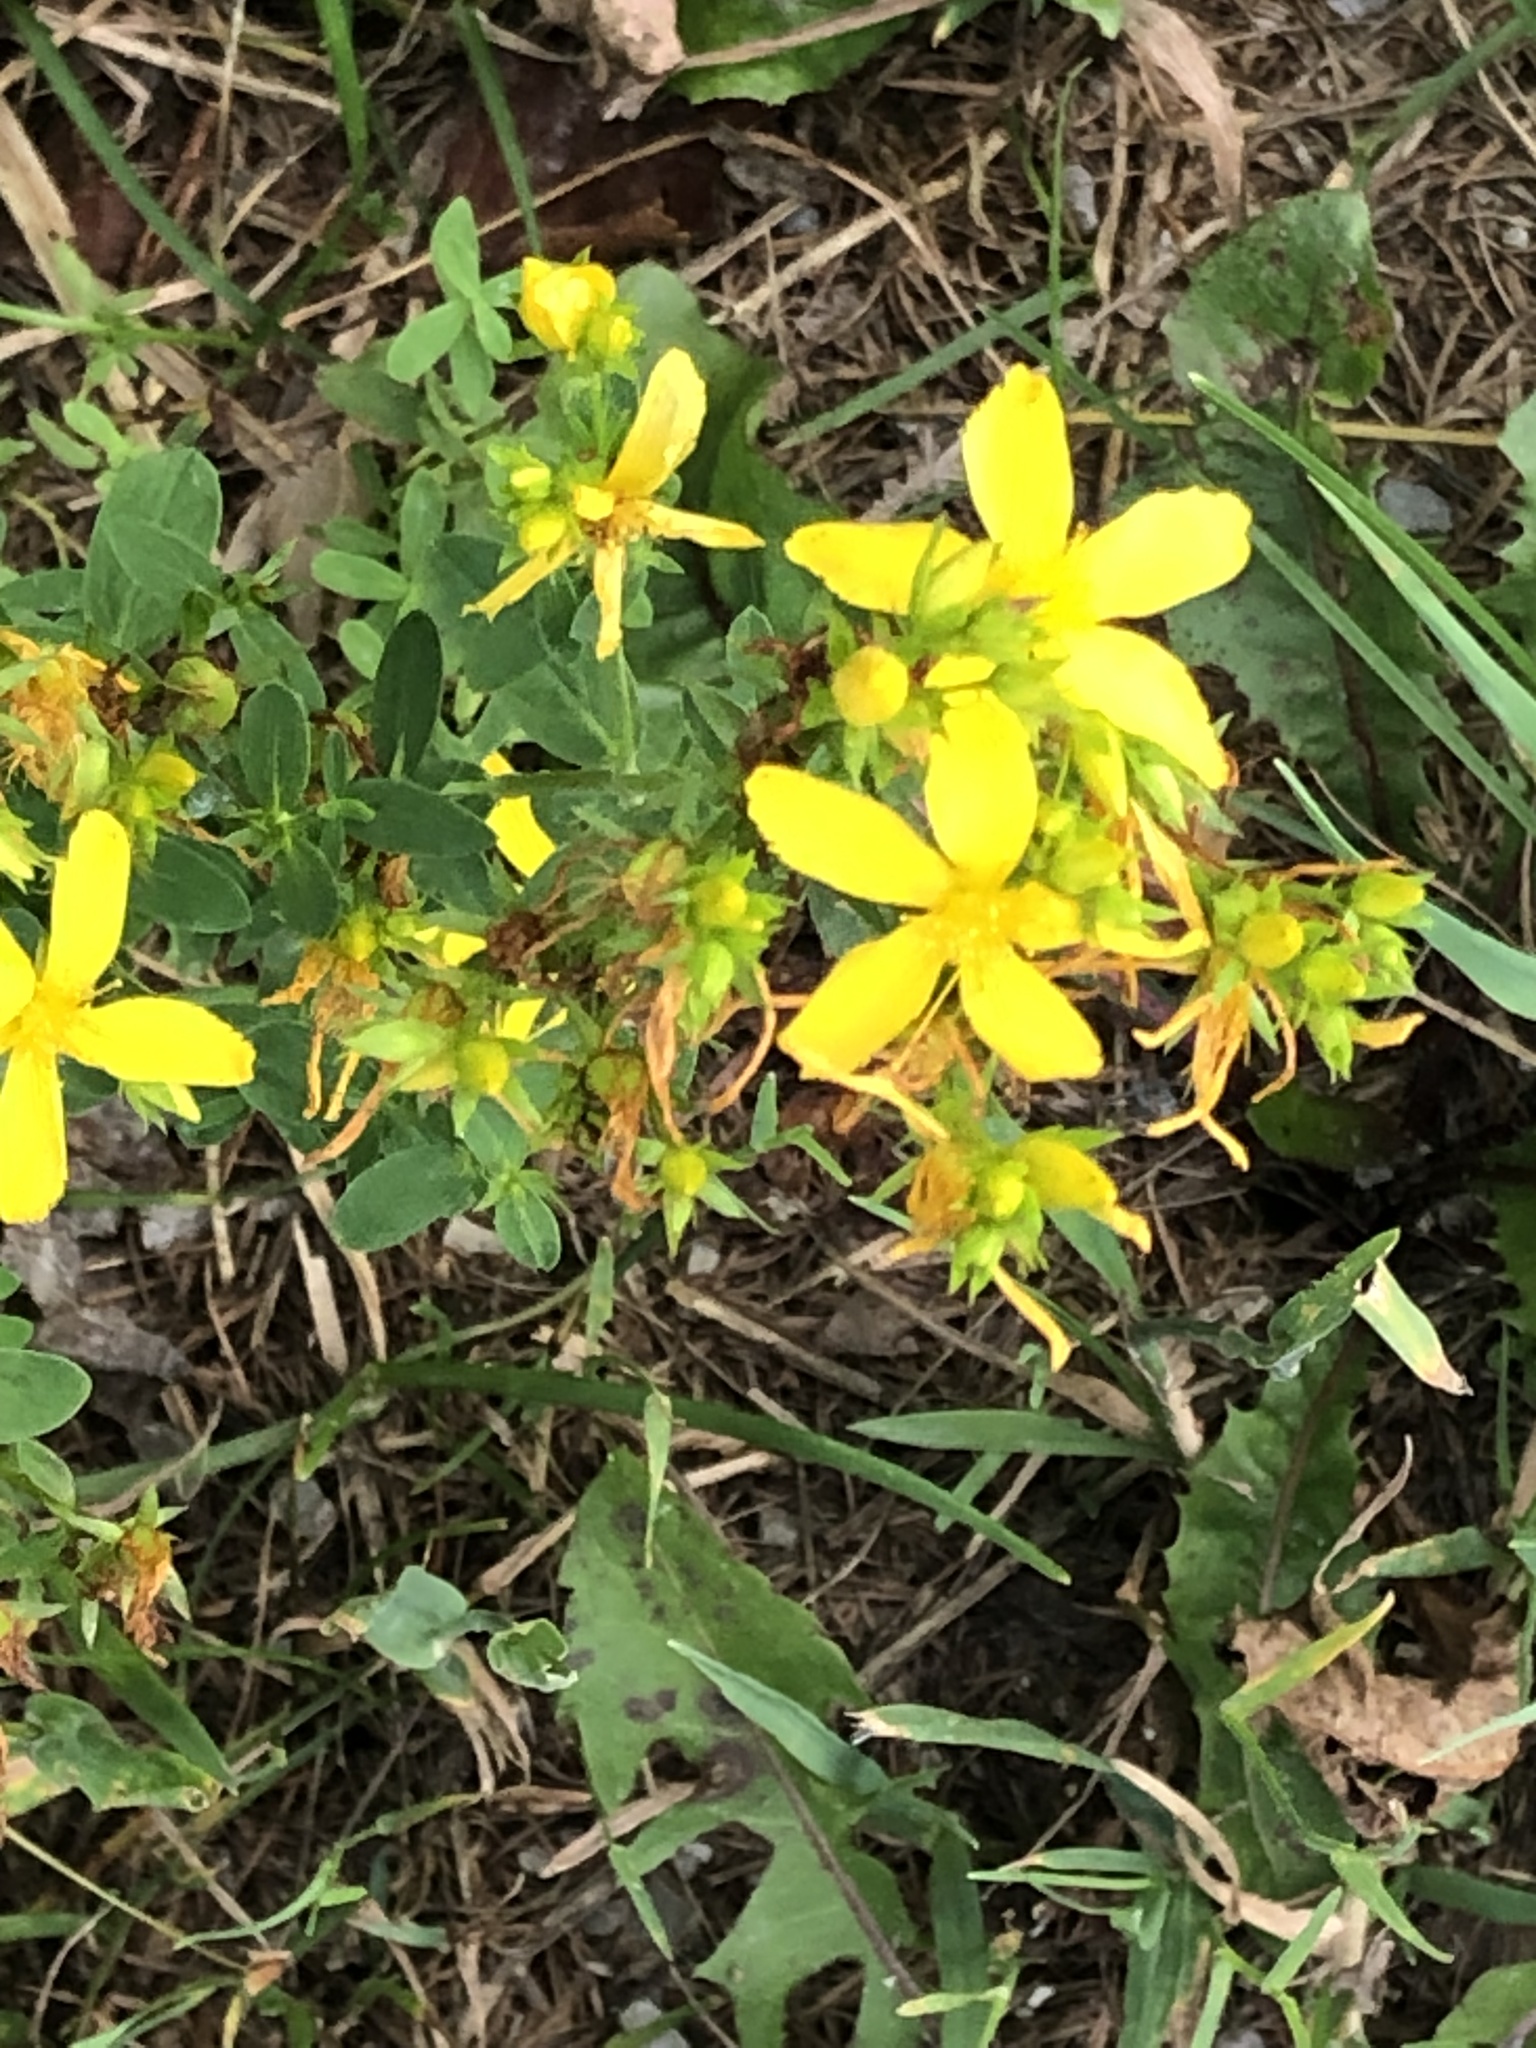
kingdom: Plantae
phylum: Tracheophyta
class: Magnoliopsida
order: Malpighiales
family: Hypericaceae
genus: Hypericum
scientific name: Hypericum perforatum
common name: Common st. johnswort
